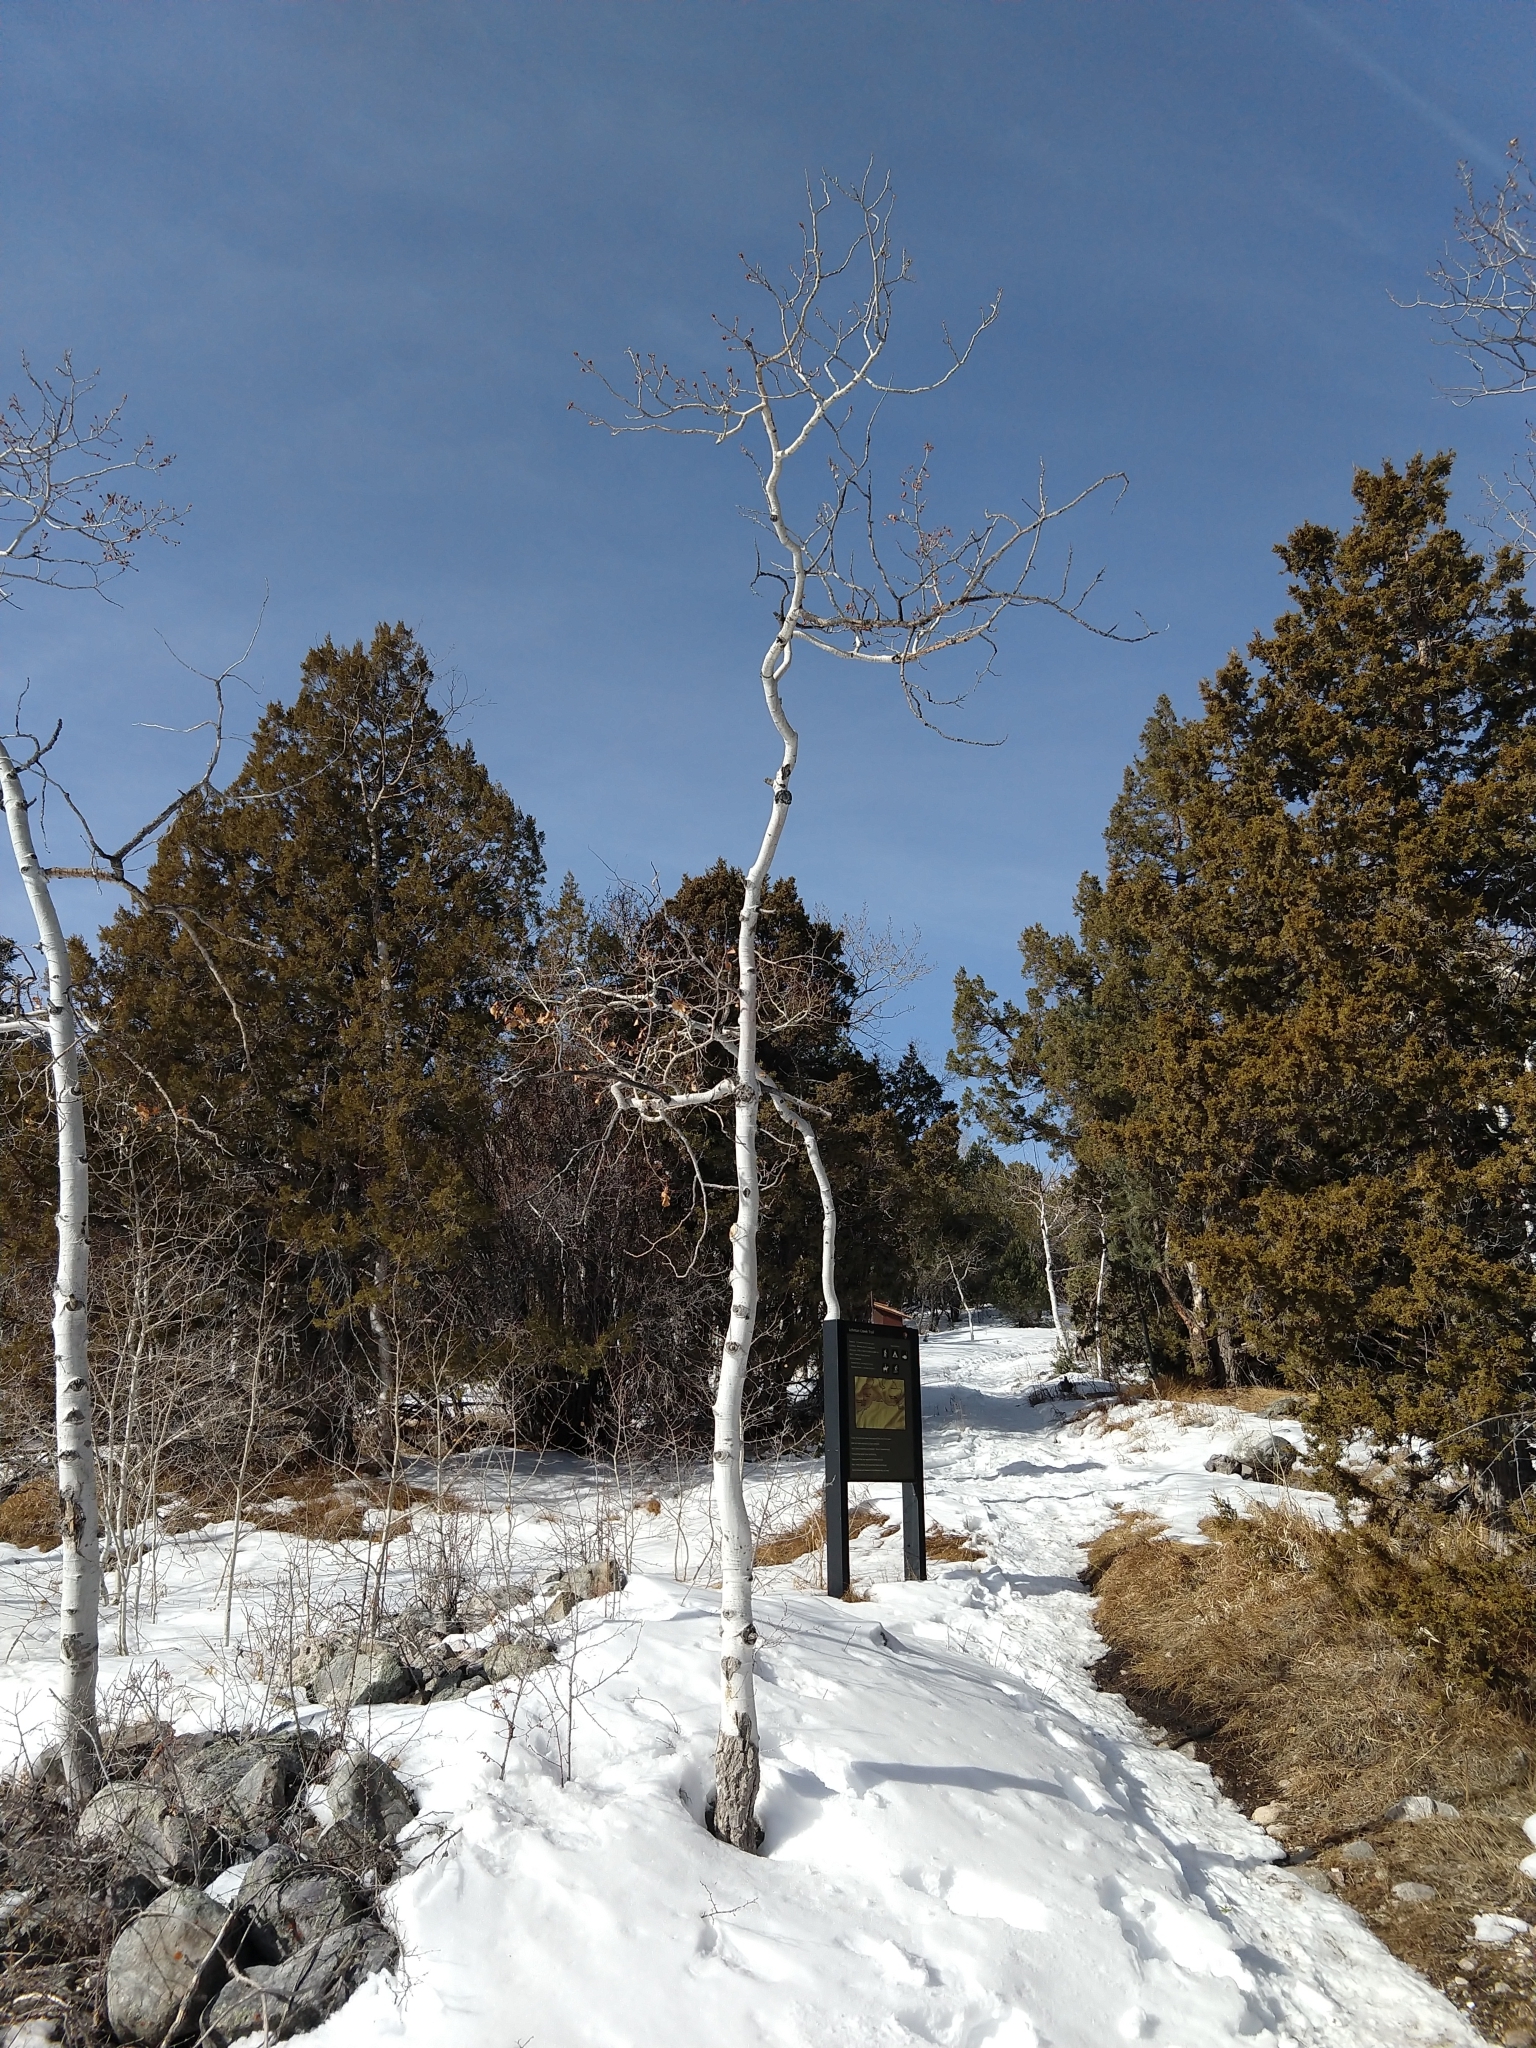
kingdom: Plantae
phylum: Tracheophyta
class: Magnoliopsida
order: Malpighiales
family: Salicaceae
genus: Populus
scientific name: Populus tremuloides
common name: Quaking aspen
